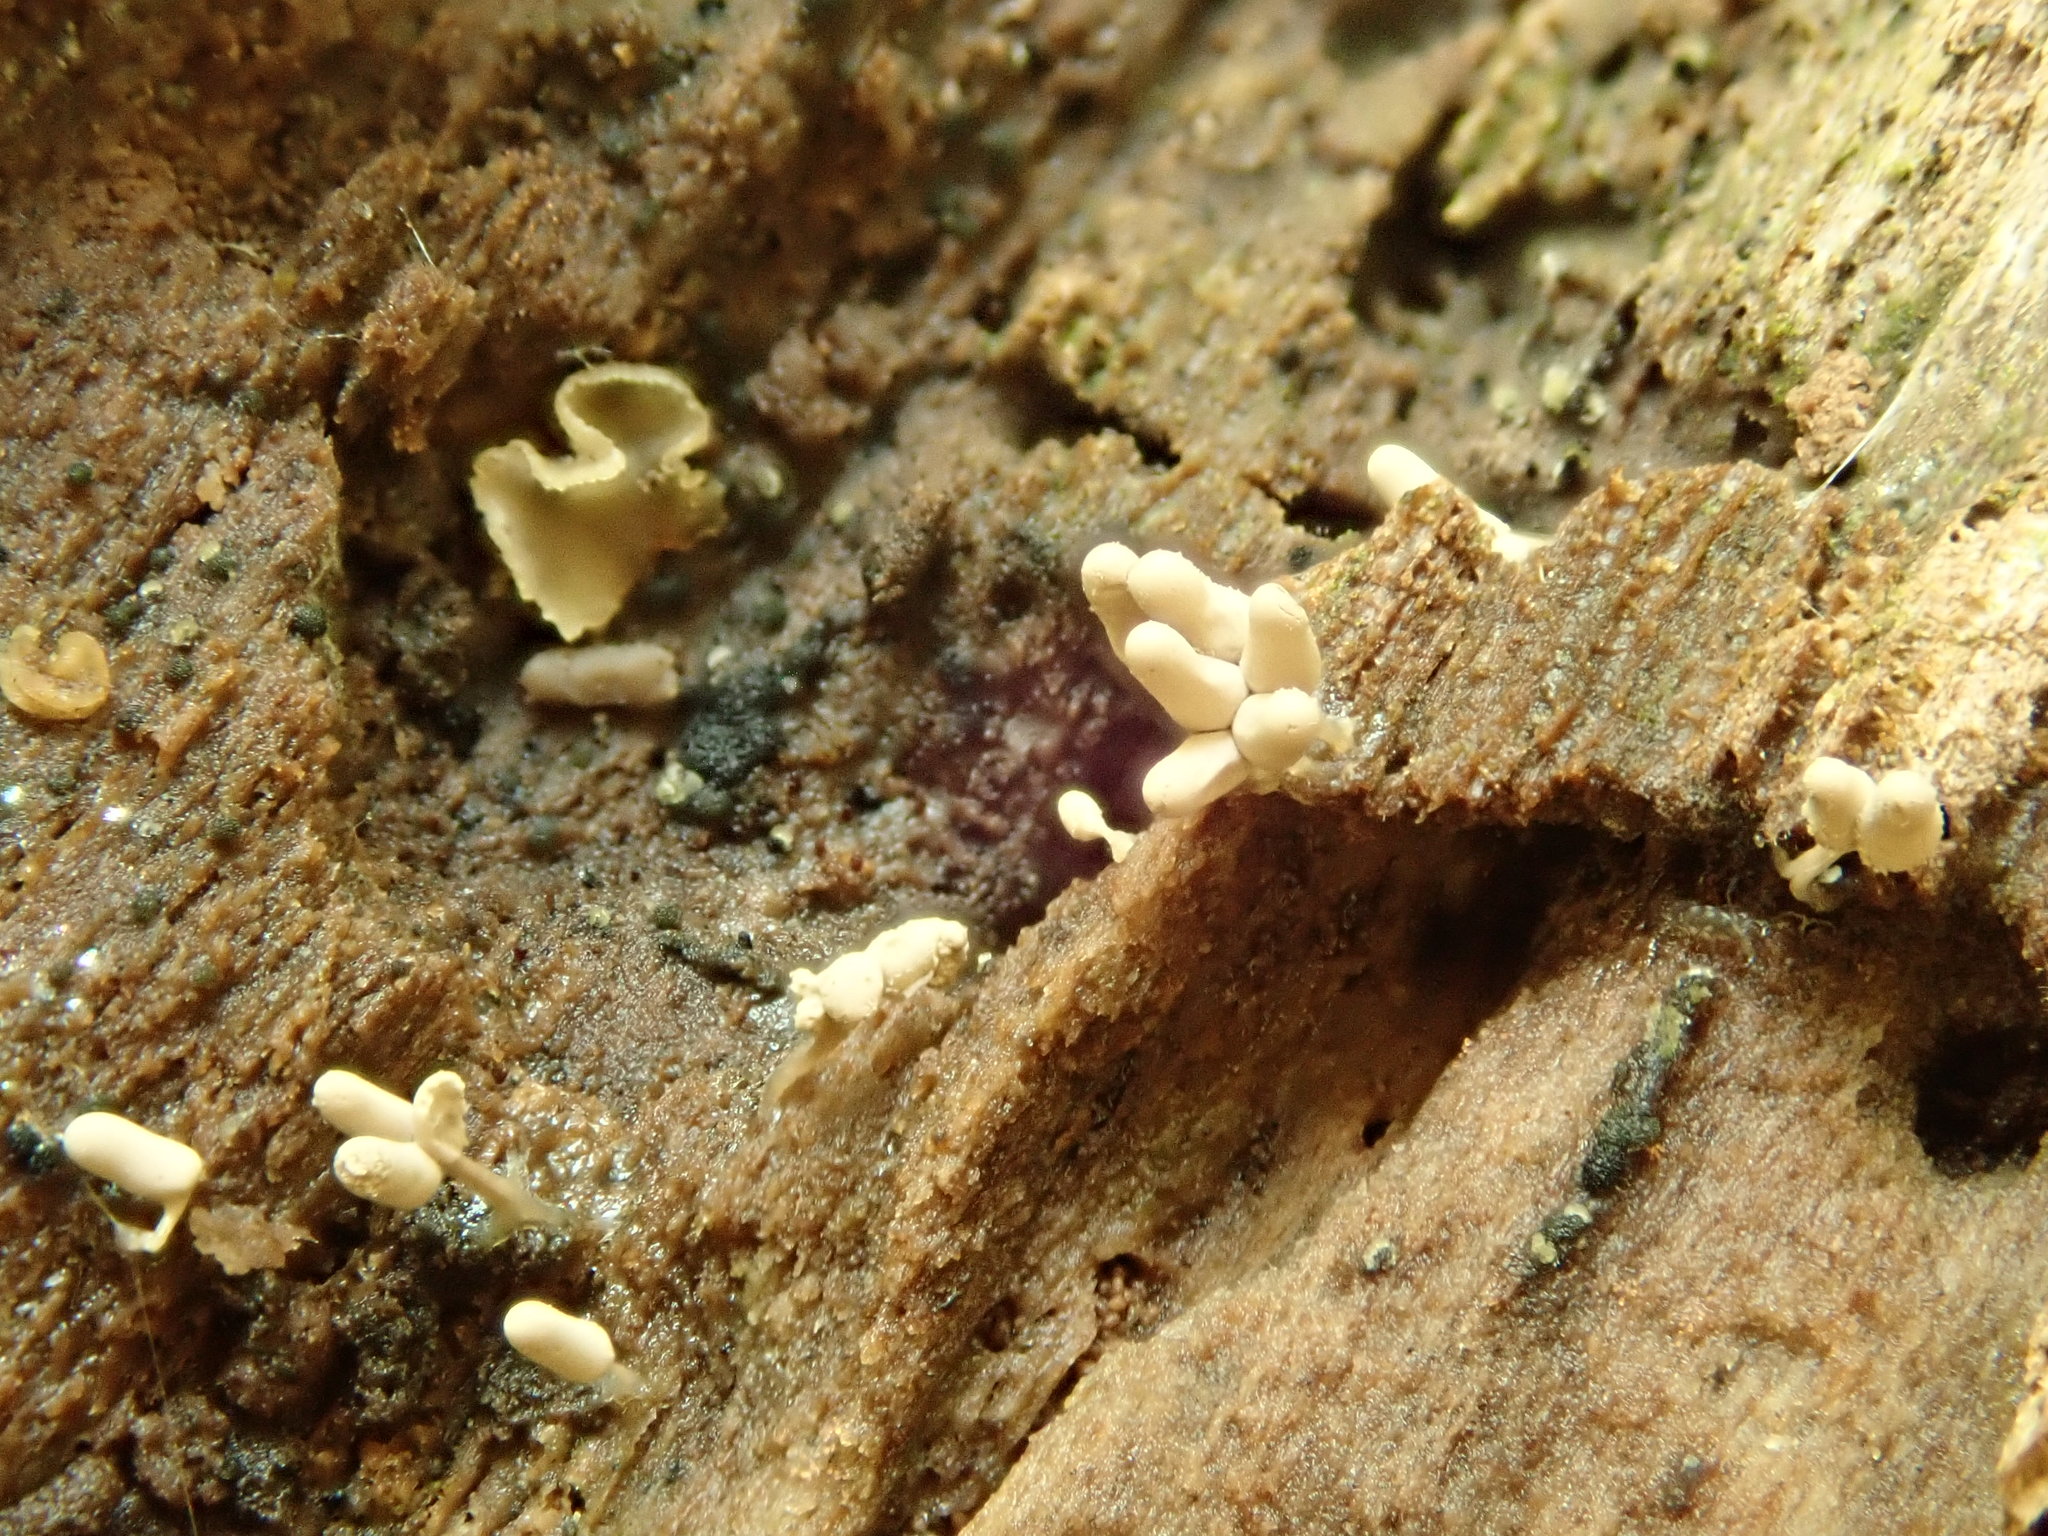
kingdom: Protozoa
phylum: Mycetozoa
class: Myxomycetes
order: Trichiales
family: Arcyriaceae
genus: Arcyria
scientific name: Arcyria cinerea
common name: White carnival candy slime mold
